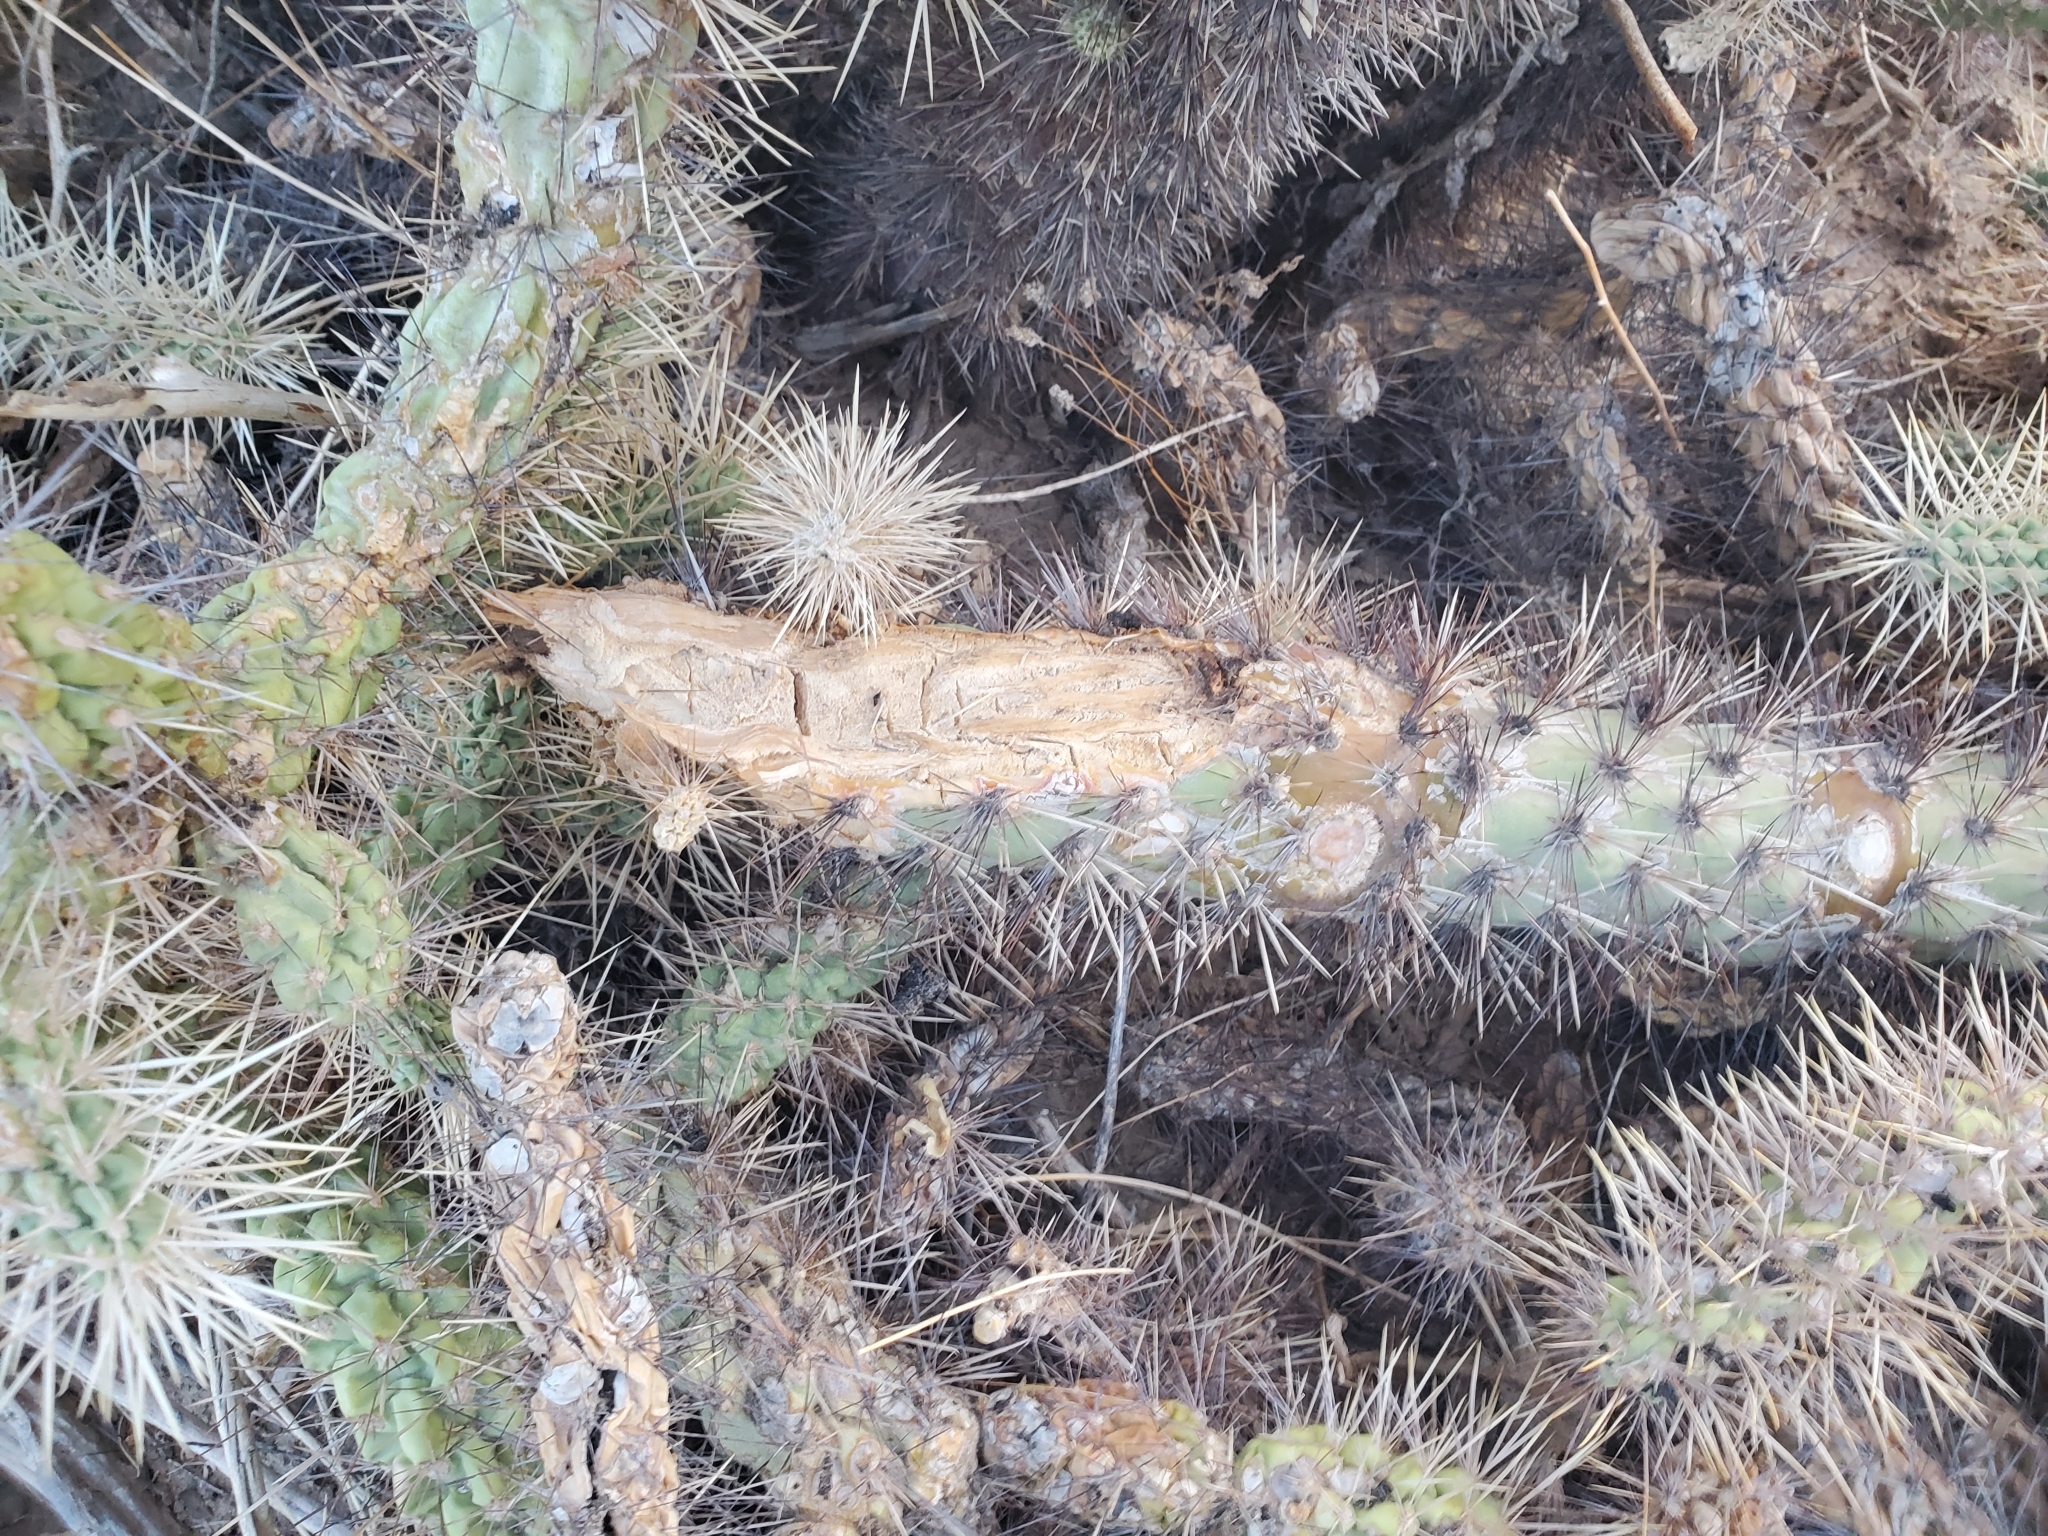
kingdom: Plantae
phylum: Tracheophyta
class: Magnoliopsida
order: Caryophyllales
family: Cactaceae
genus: Cylindropuntia
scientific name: Cylindropuntia munzii
